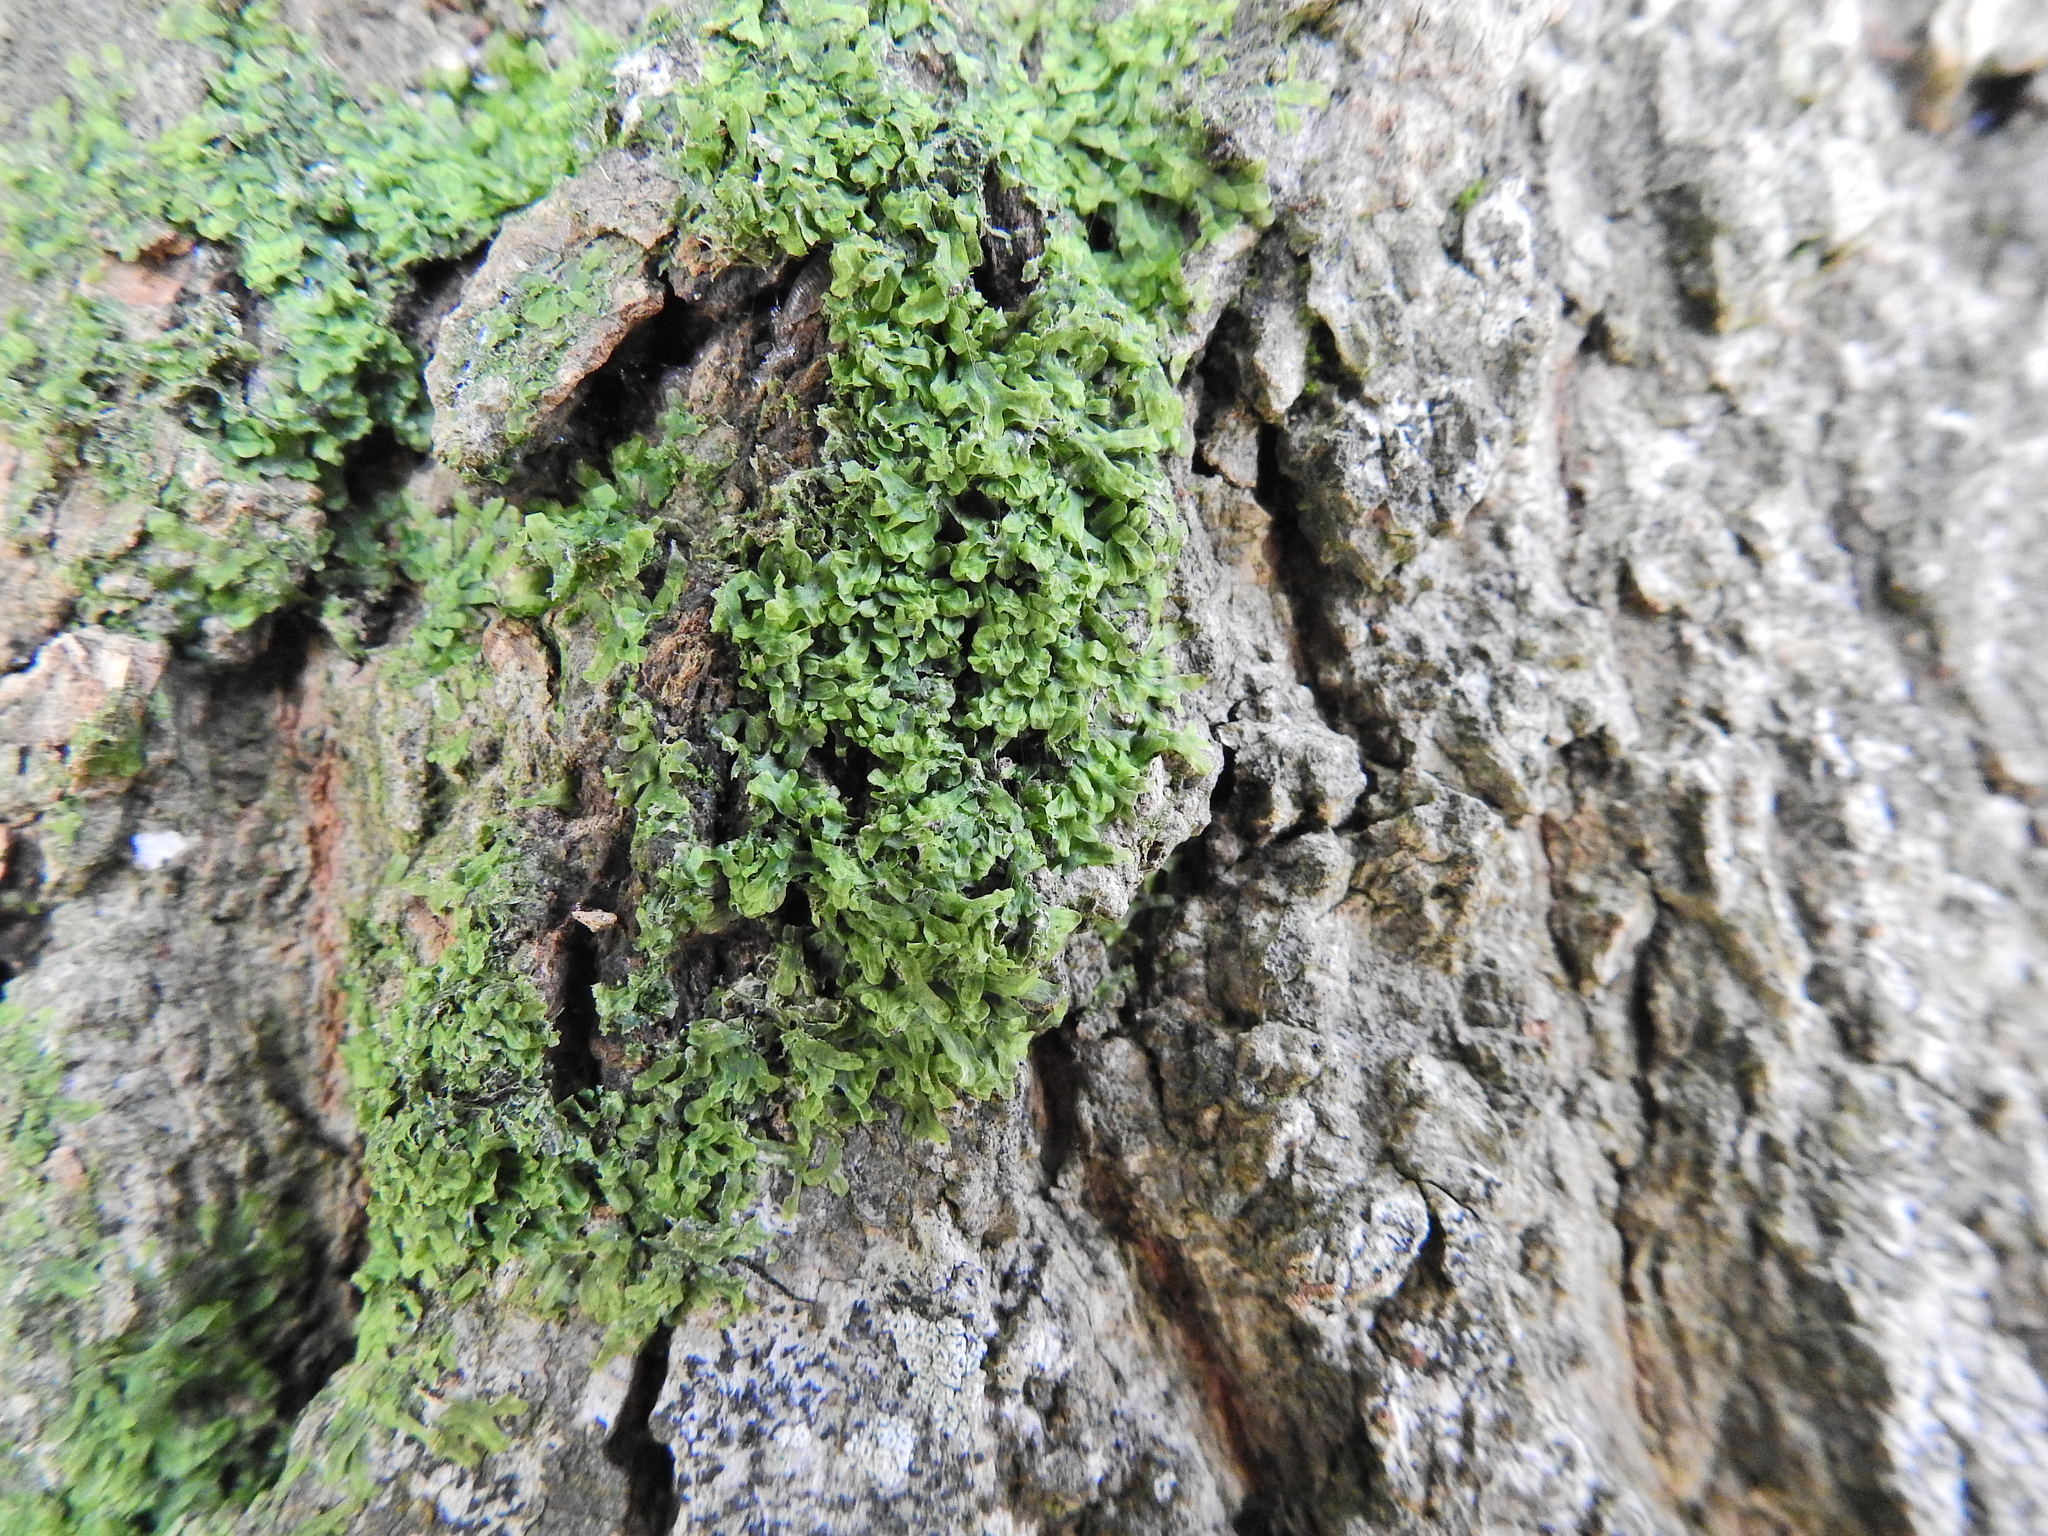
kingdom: Plantae
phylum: Marchantiophyta
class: Jungermanniopsida
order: Metzgeriales
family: Metzgeriaceae
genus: Metzgeria
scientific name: Metzgeria furcata
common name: Forked veilwort
